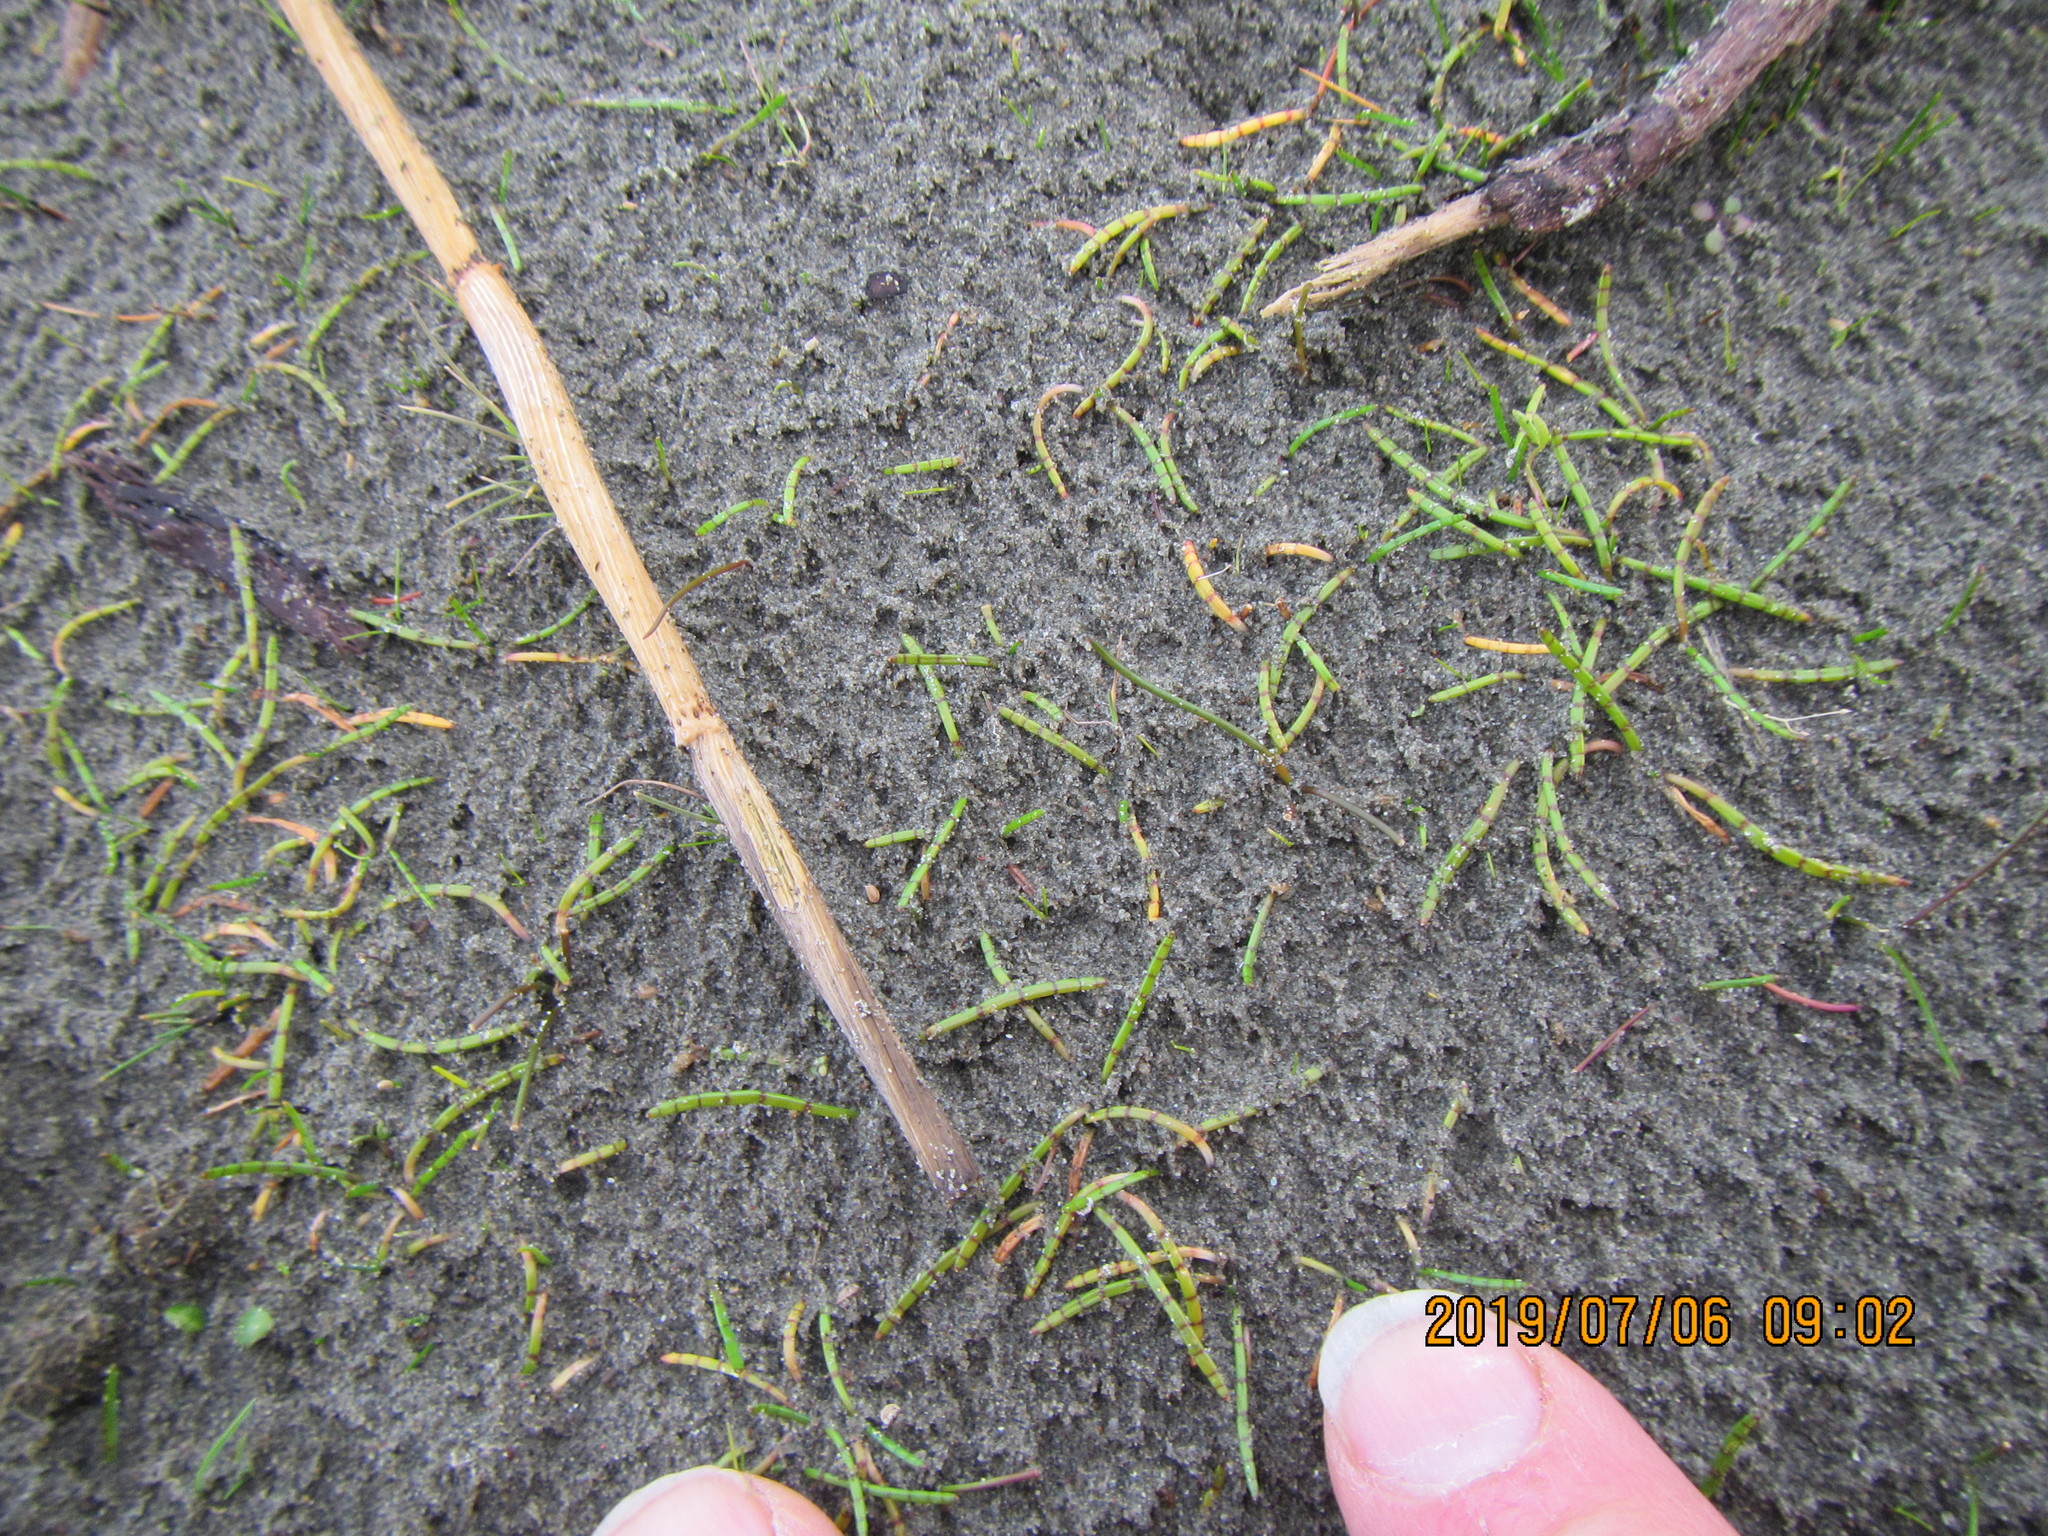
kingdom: Plantae
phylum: Tracheophyta
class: Magnoliopsida
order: Apiales
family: Apiaceae
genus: Lilaeopsis
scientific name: Lilaeopsis novae-zelandiae
